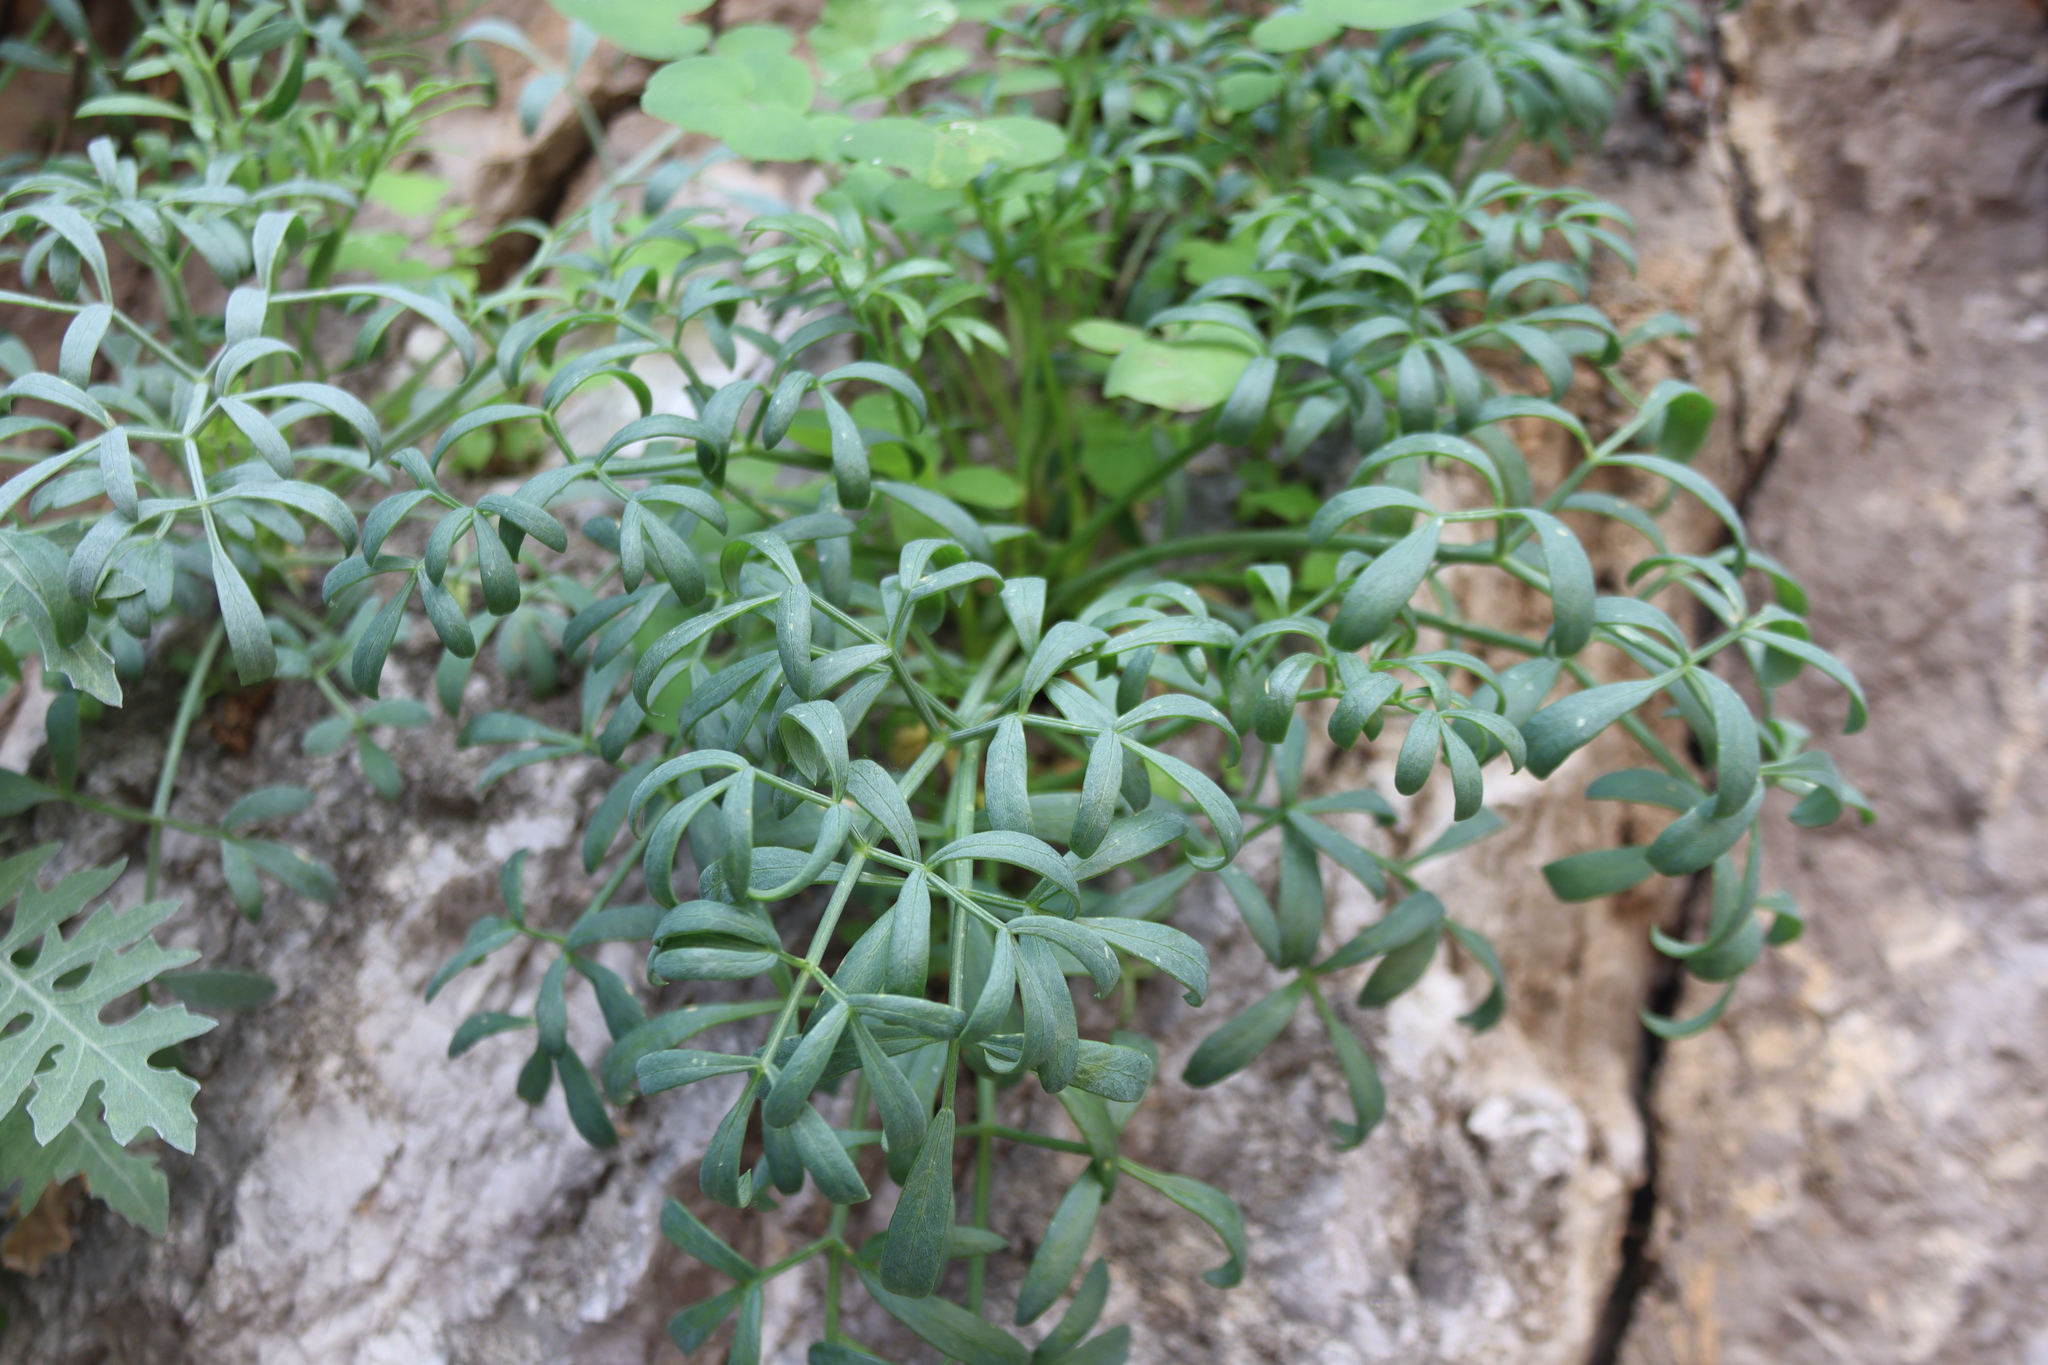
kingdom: Plantae
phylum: Tracheophyta
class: Magnoliopsida
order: Apiales
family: Apiaceae
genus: Crithmum
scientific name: Crithmum maritimum
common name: Rock samphire
